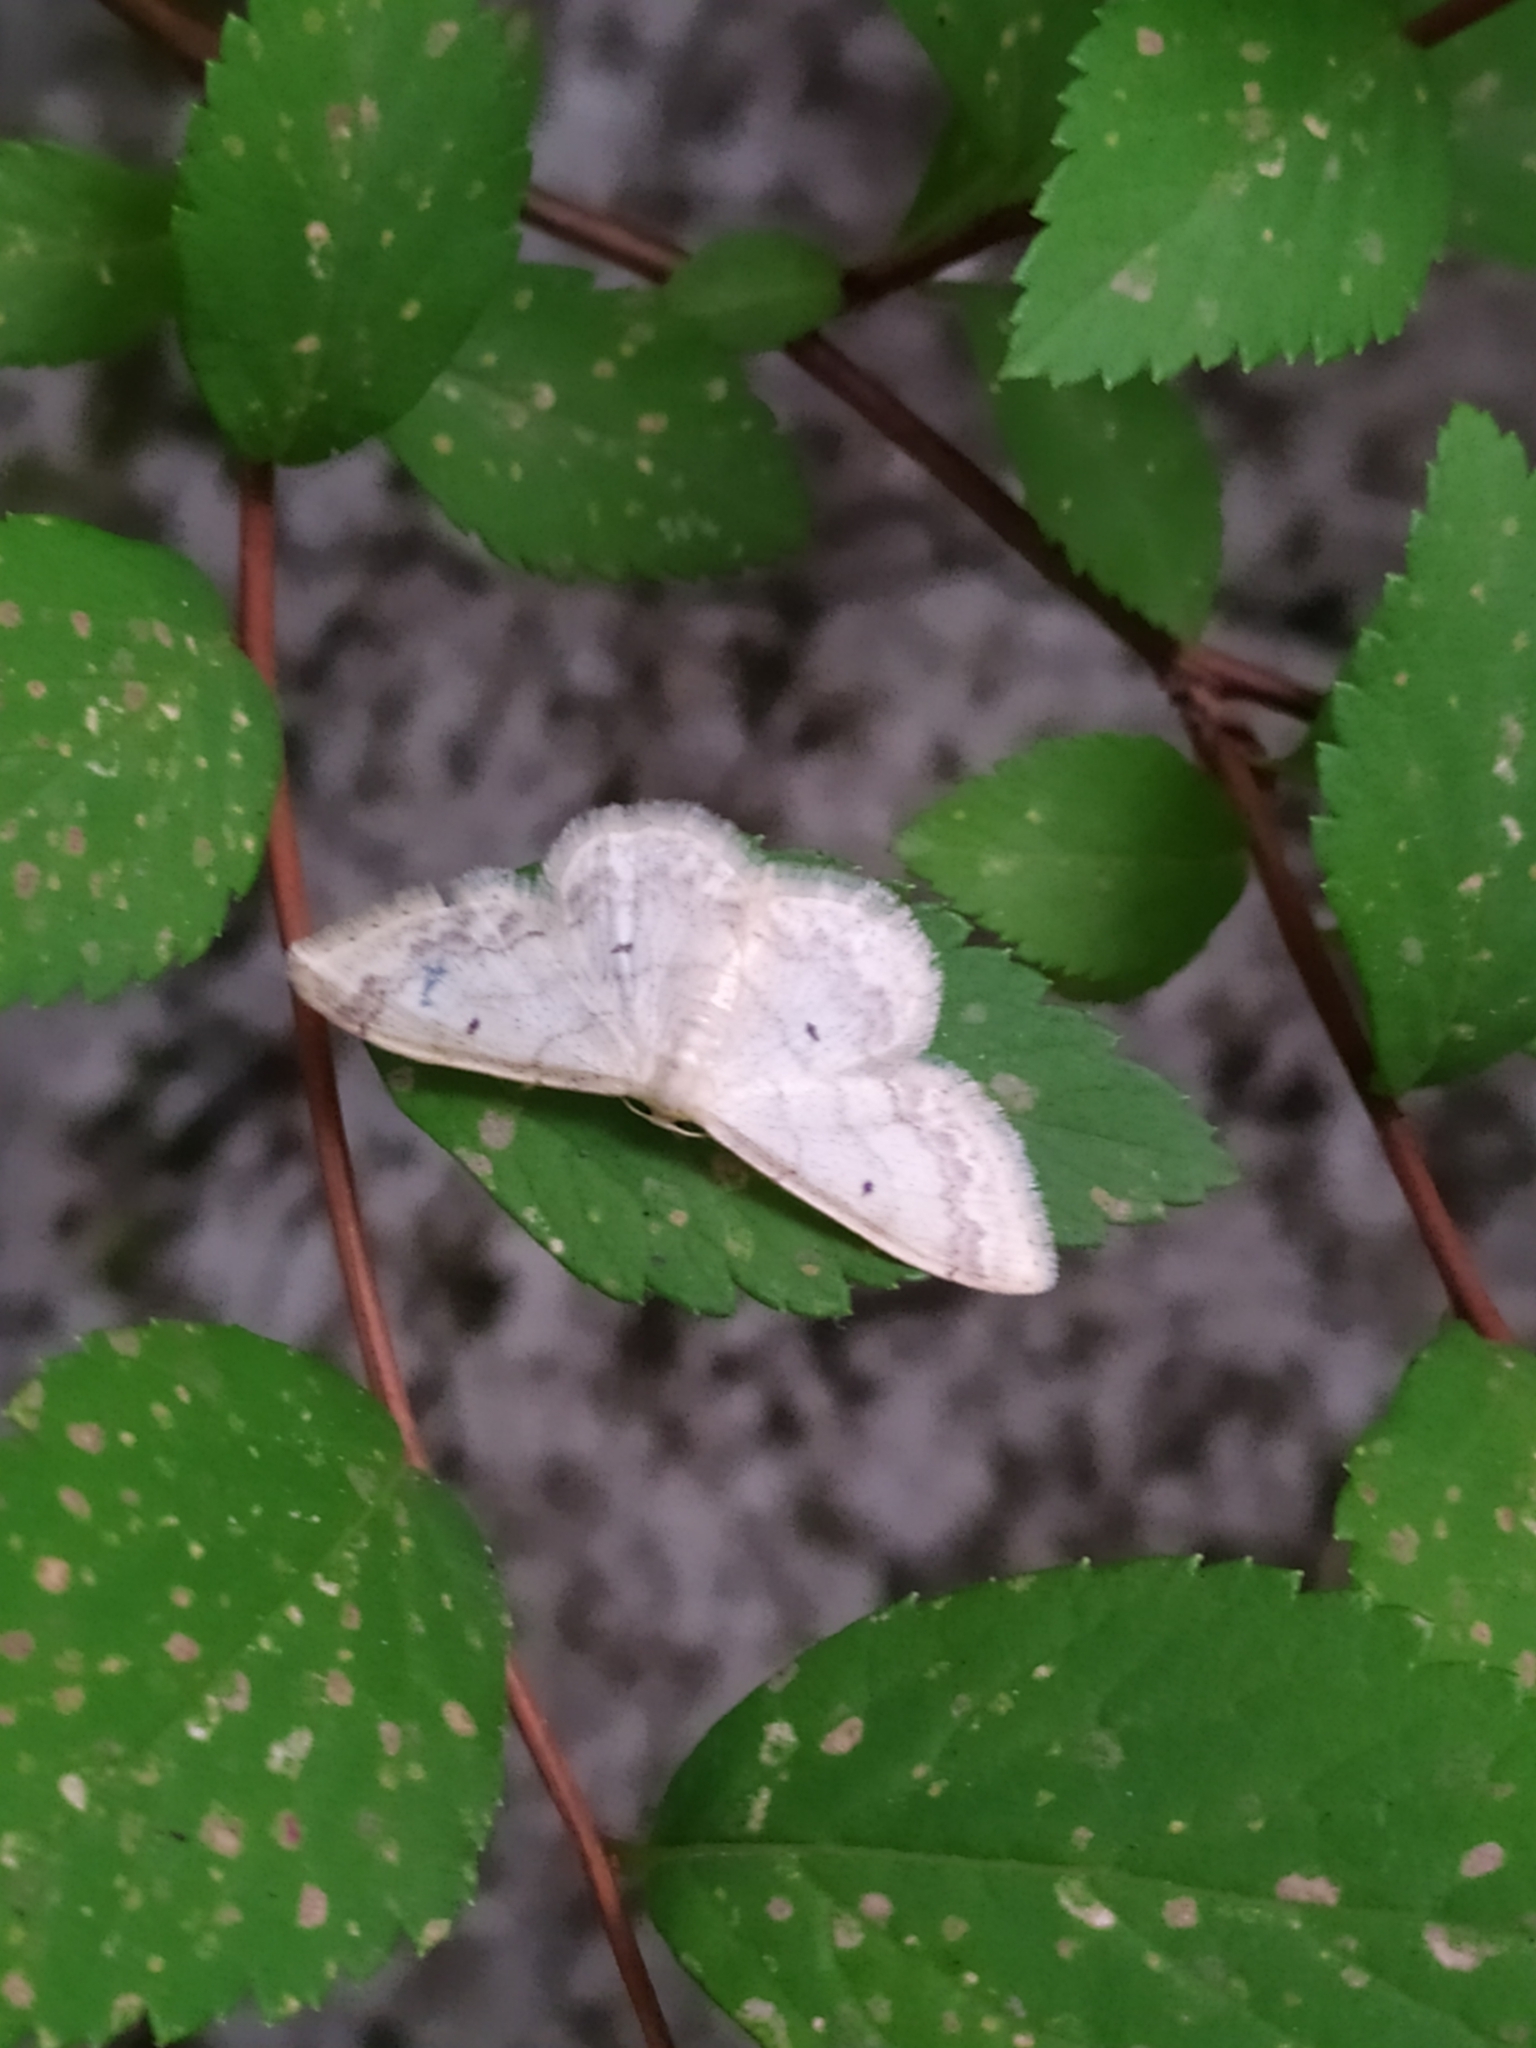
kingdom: Animalia
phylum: Arthropoda
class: Insecta
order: Lepidoptera
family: Geometridae
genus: Idaea
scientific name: Idaea biselata
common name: Small fan-footed wave
